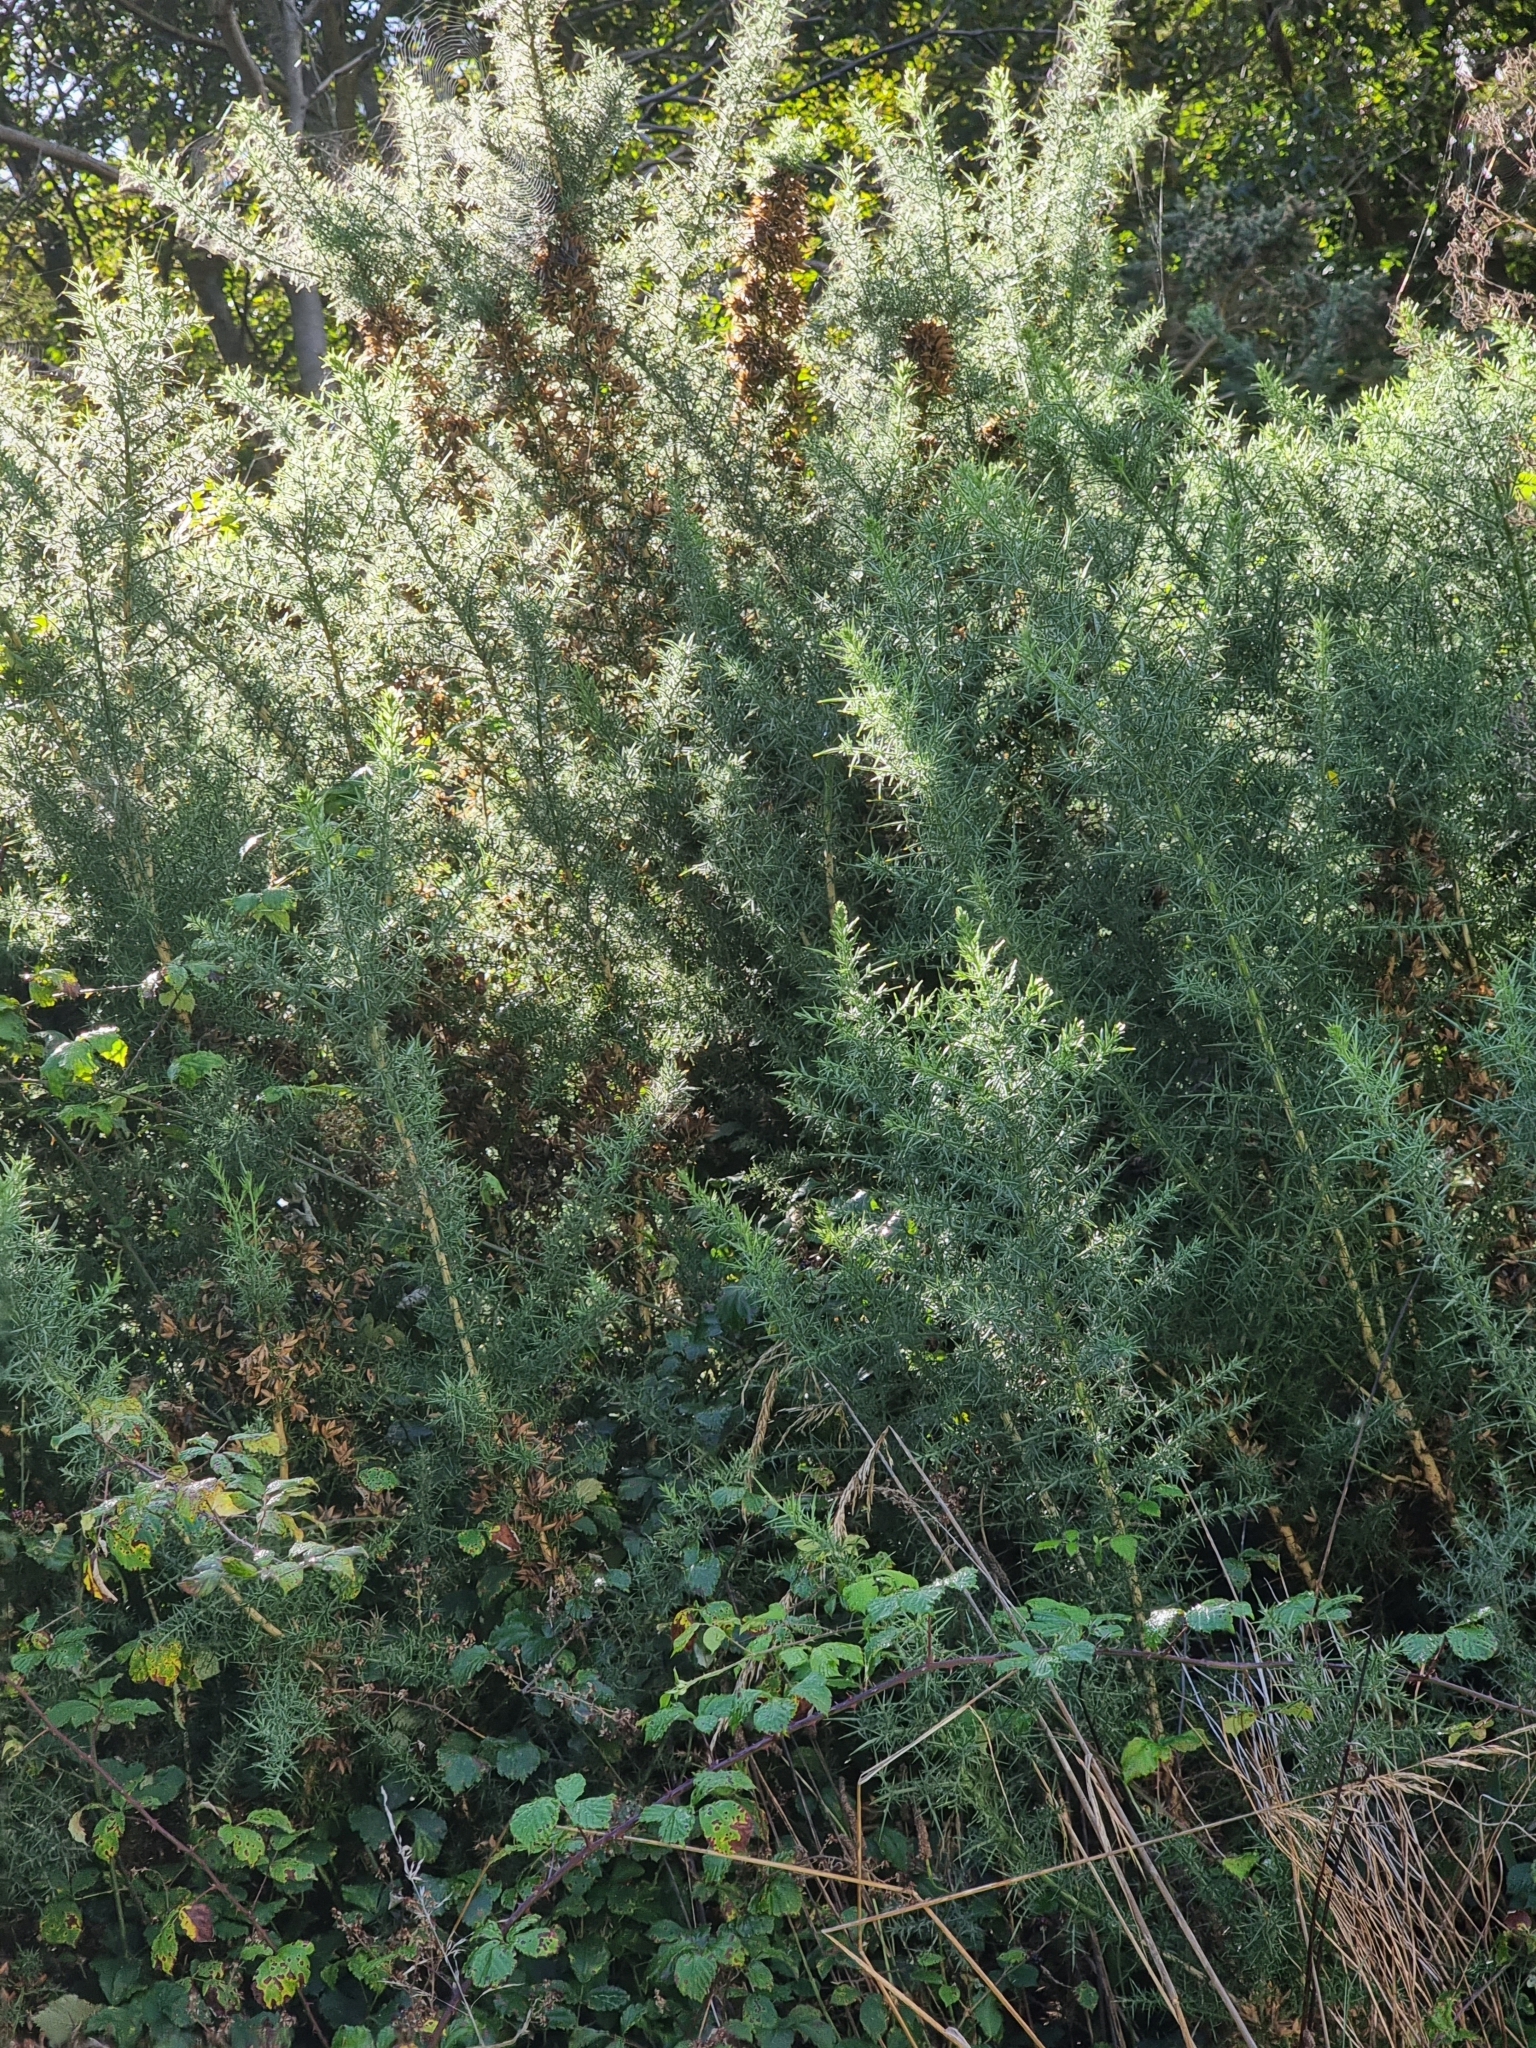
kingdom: Plantae
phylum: Tracheophyta
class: Magnoliopsida
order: Fabales
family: Fabaceae
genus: Ulex
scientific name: Ulex europaeus
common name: Common gorse
